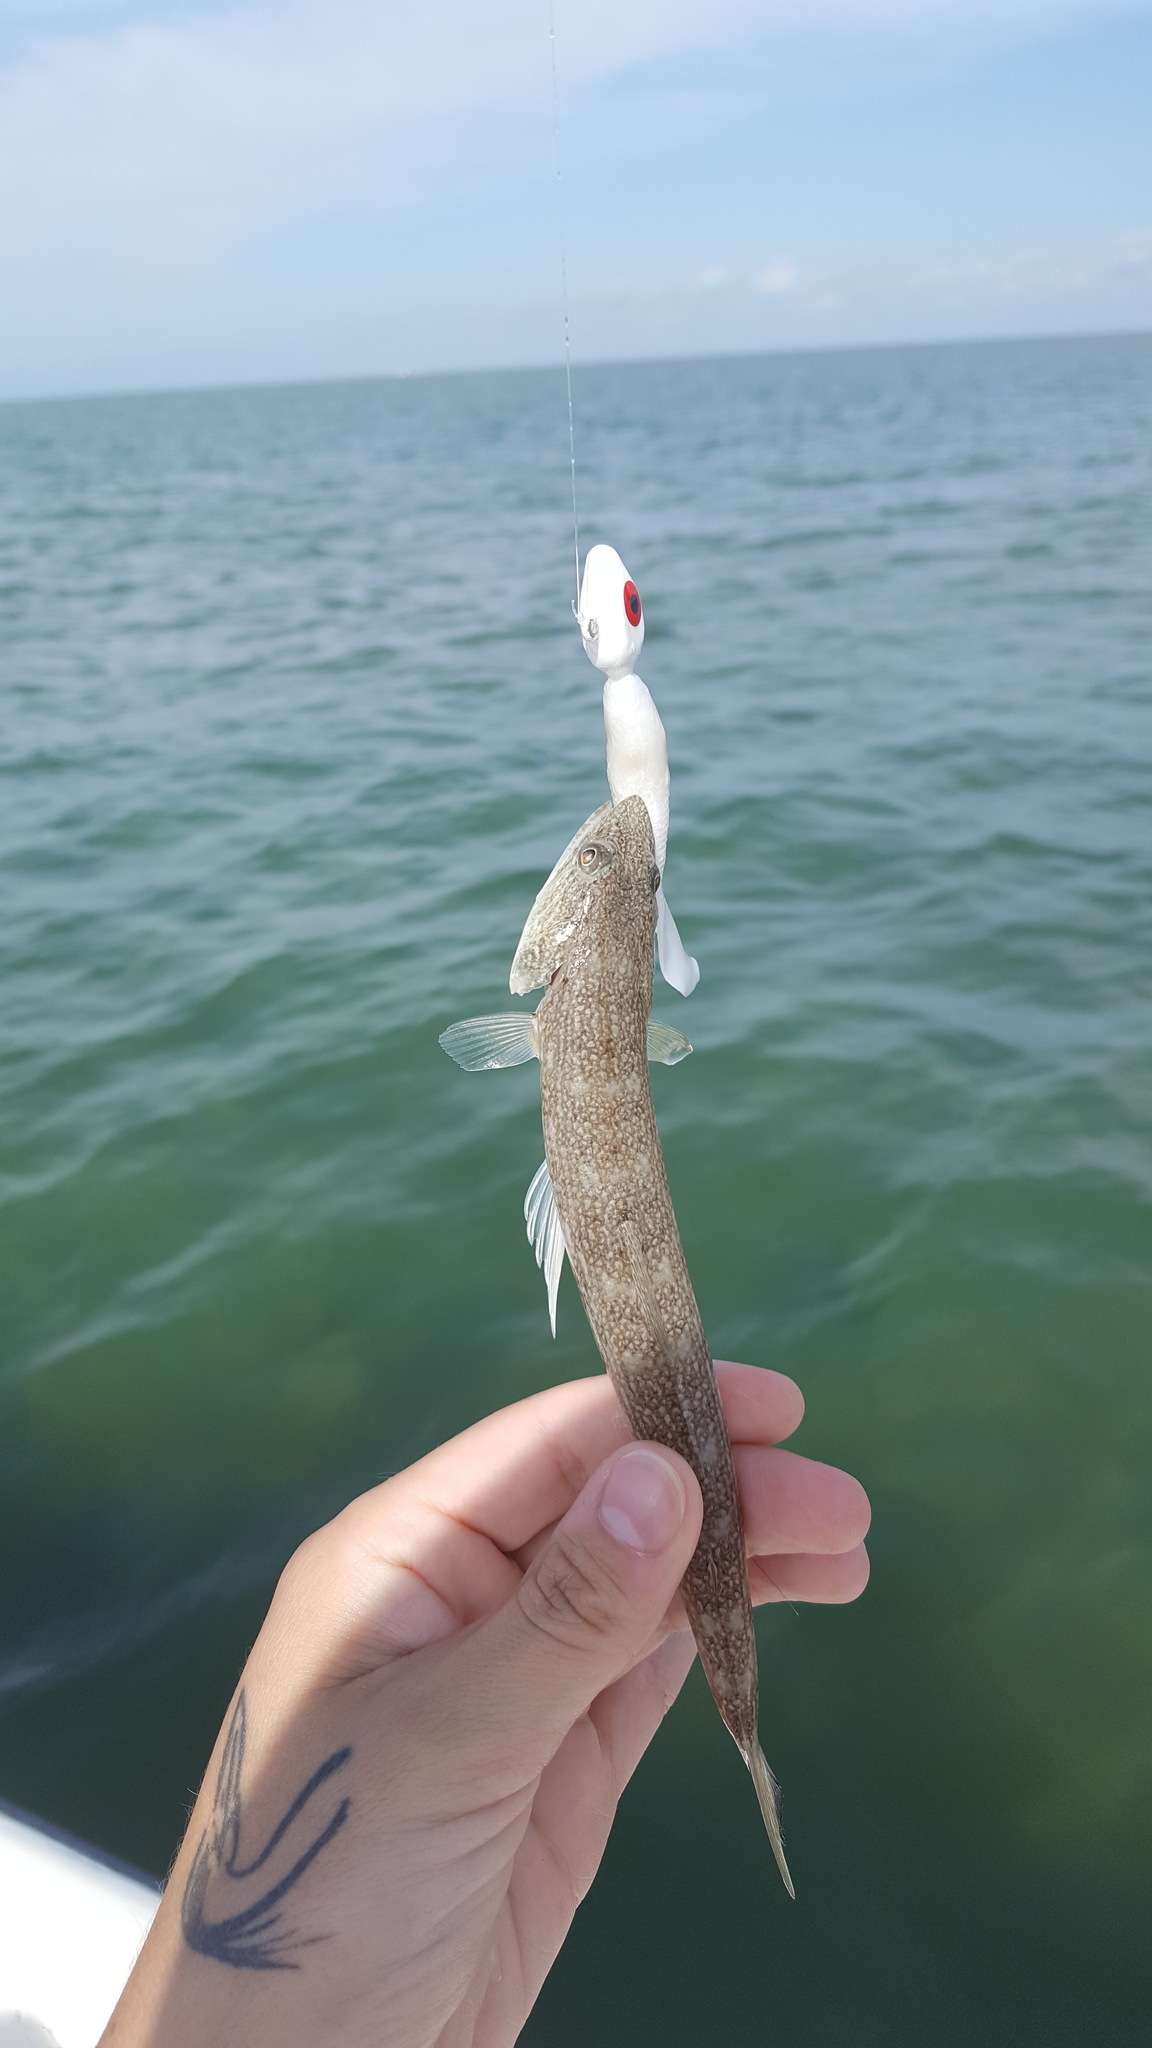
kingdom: Animalia
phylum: Chordata
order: Aulopiformes
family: Synodontidae
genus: Synodus
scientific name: Synodus foetens
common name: Inshore lizardfish
